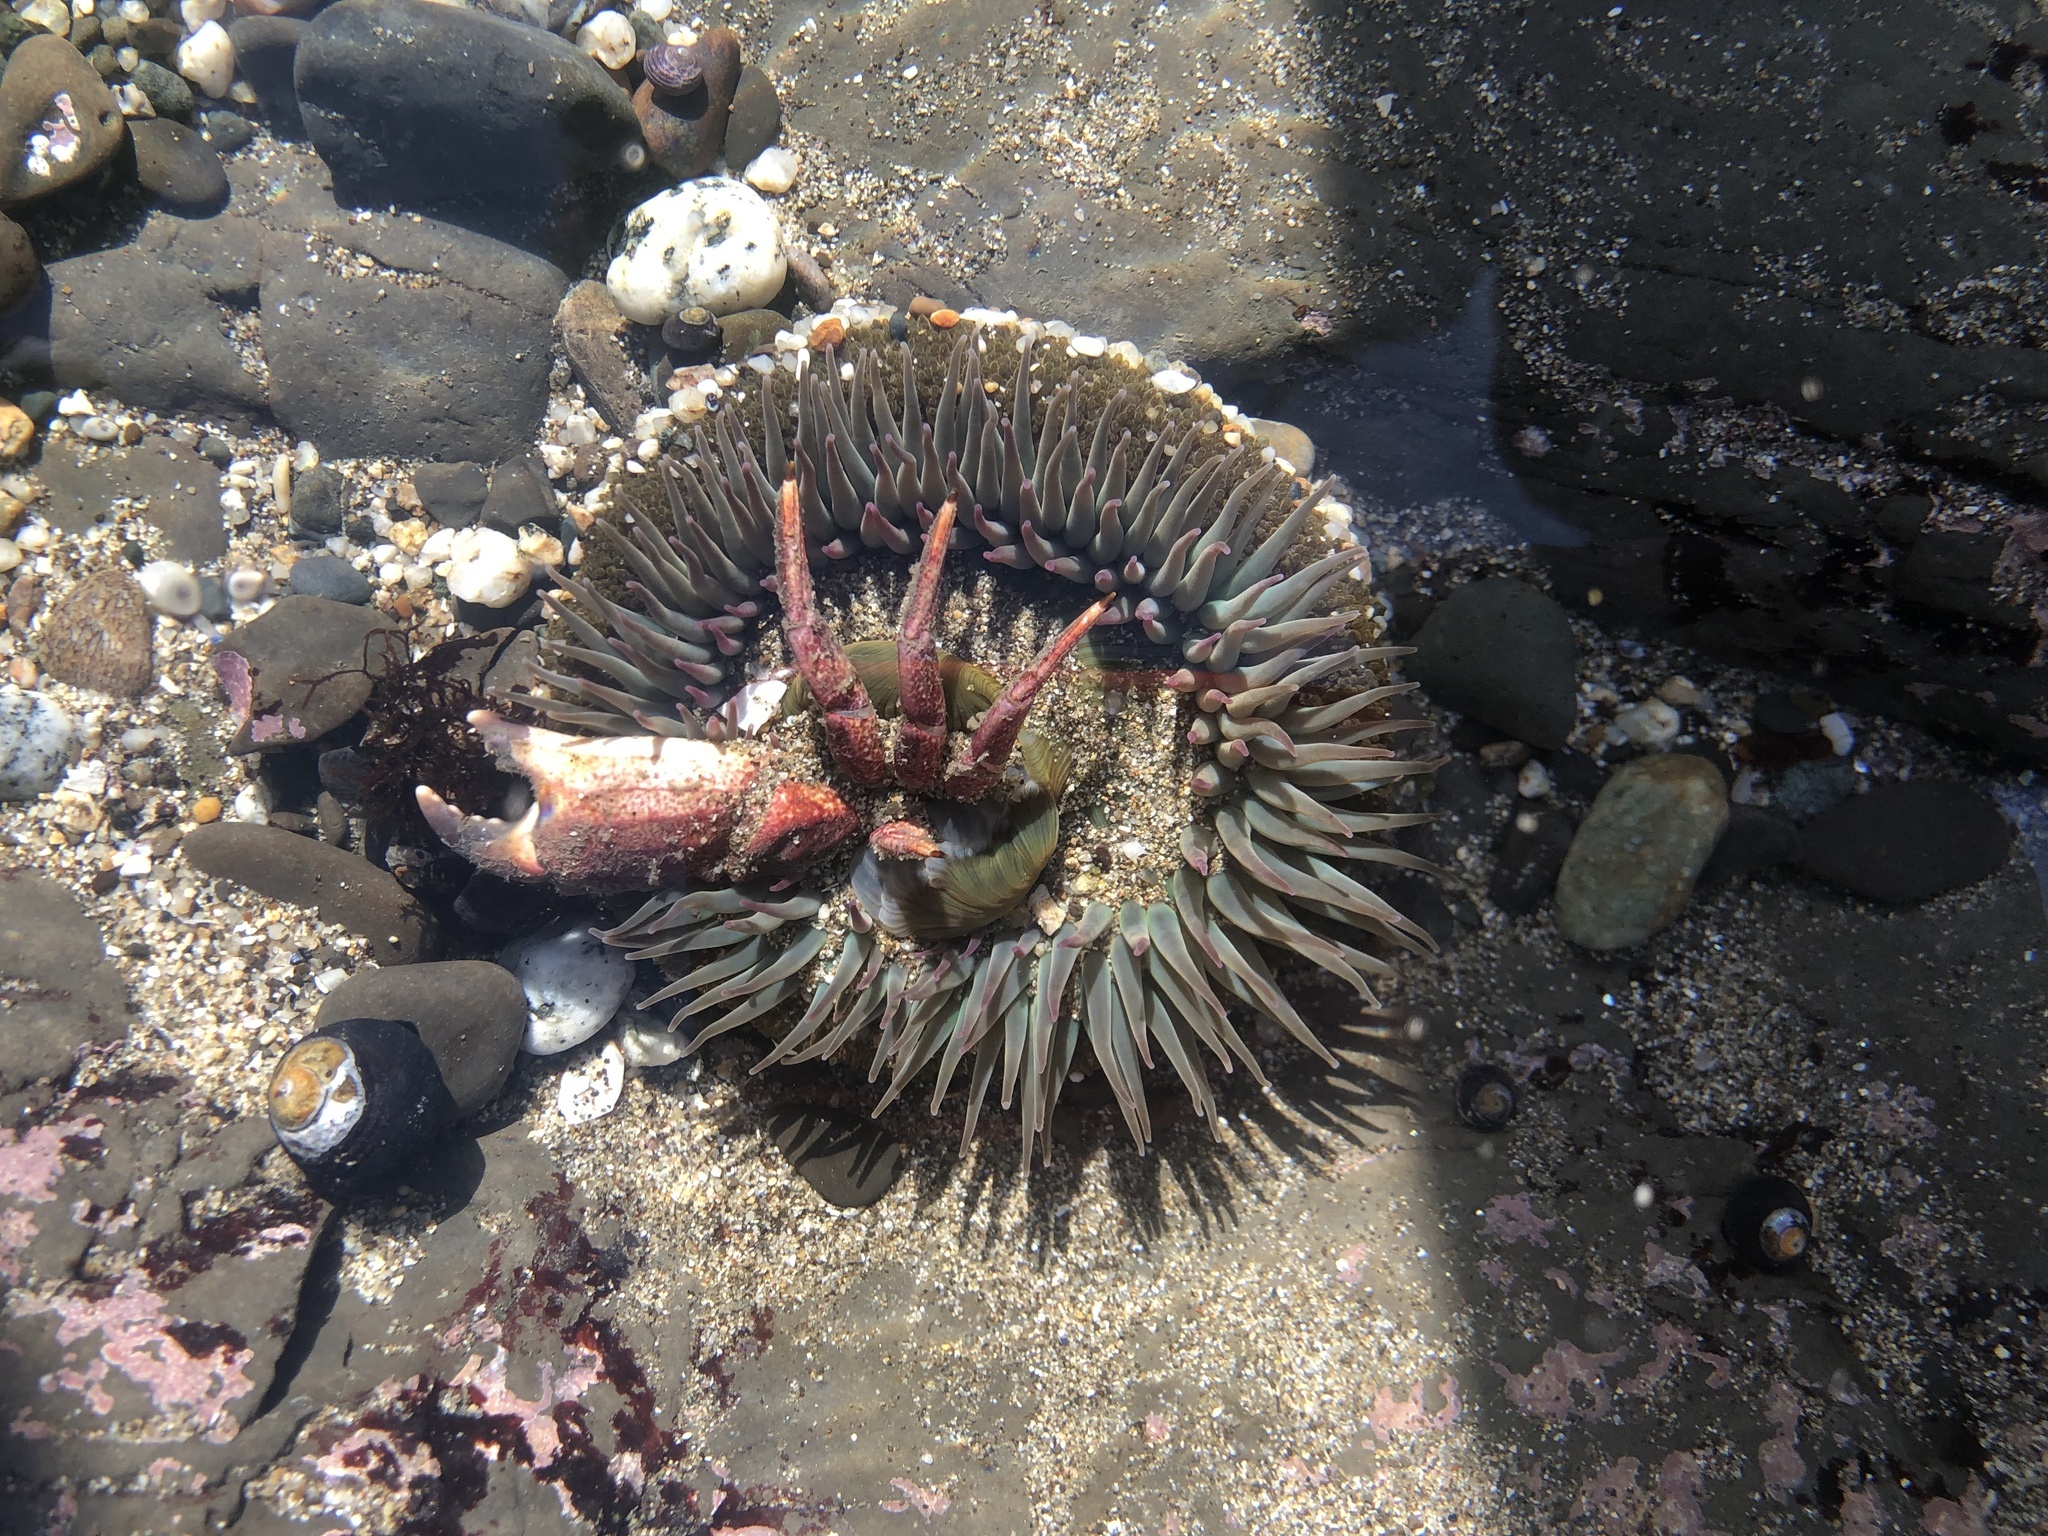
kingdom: Animalia
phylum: Cnidaria
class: Anthozoa
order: Actiniaria
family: Actiniidae
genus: Anthopleura
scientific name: Anthopleura sola
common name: Sun anemone
